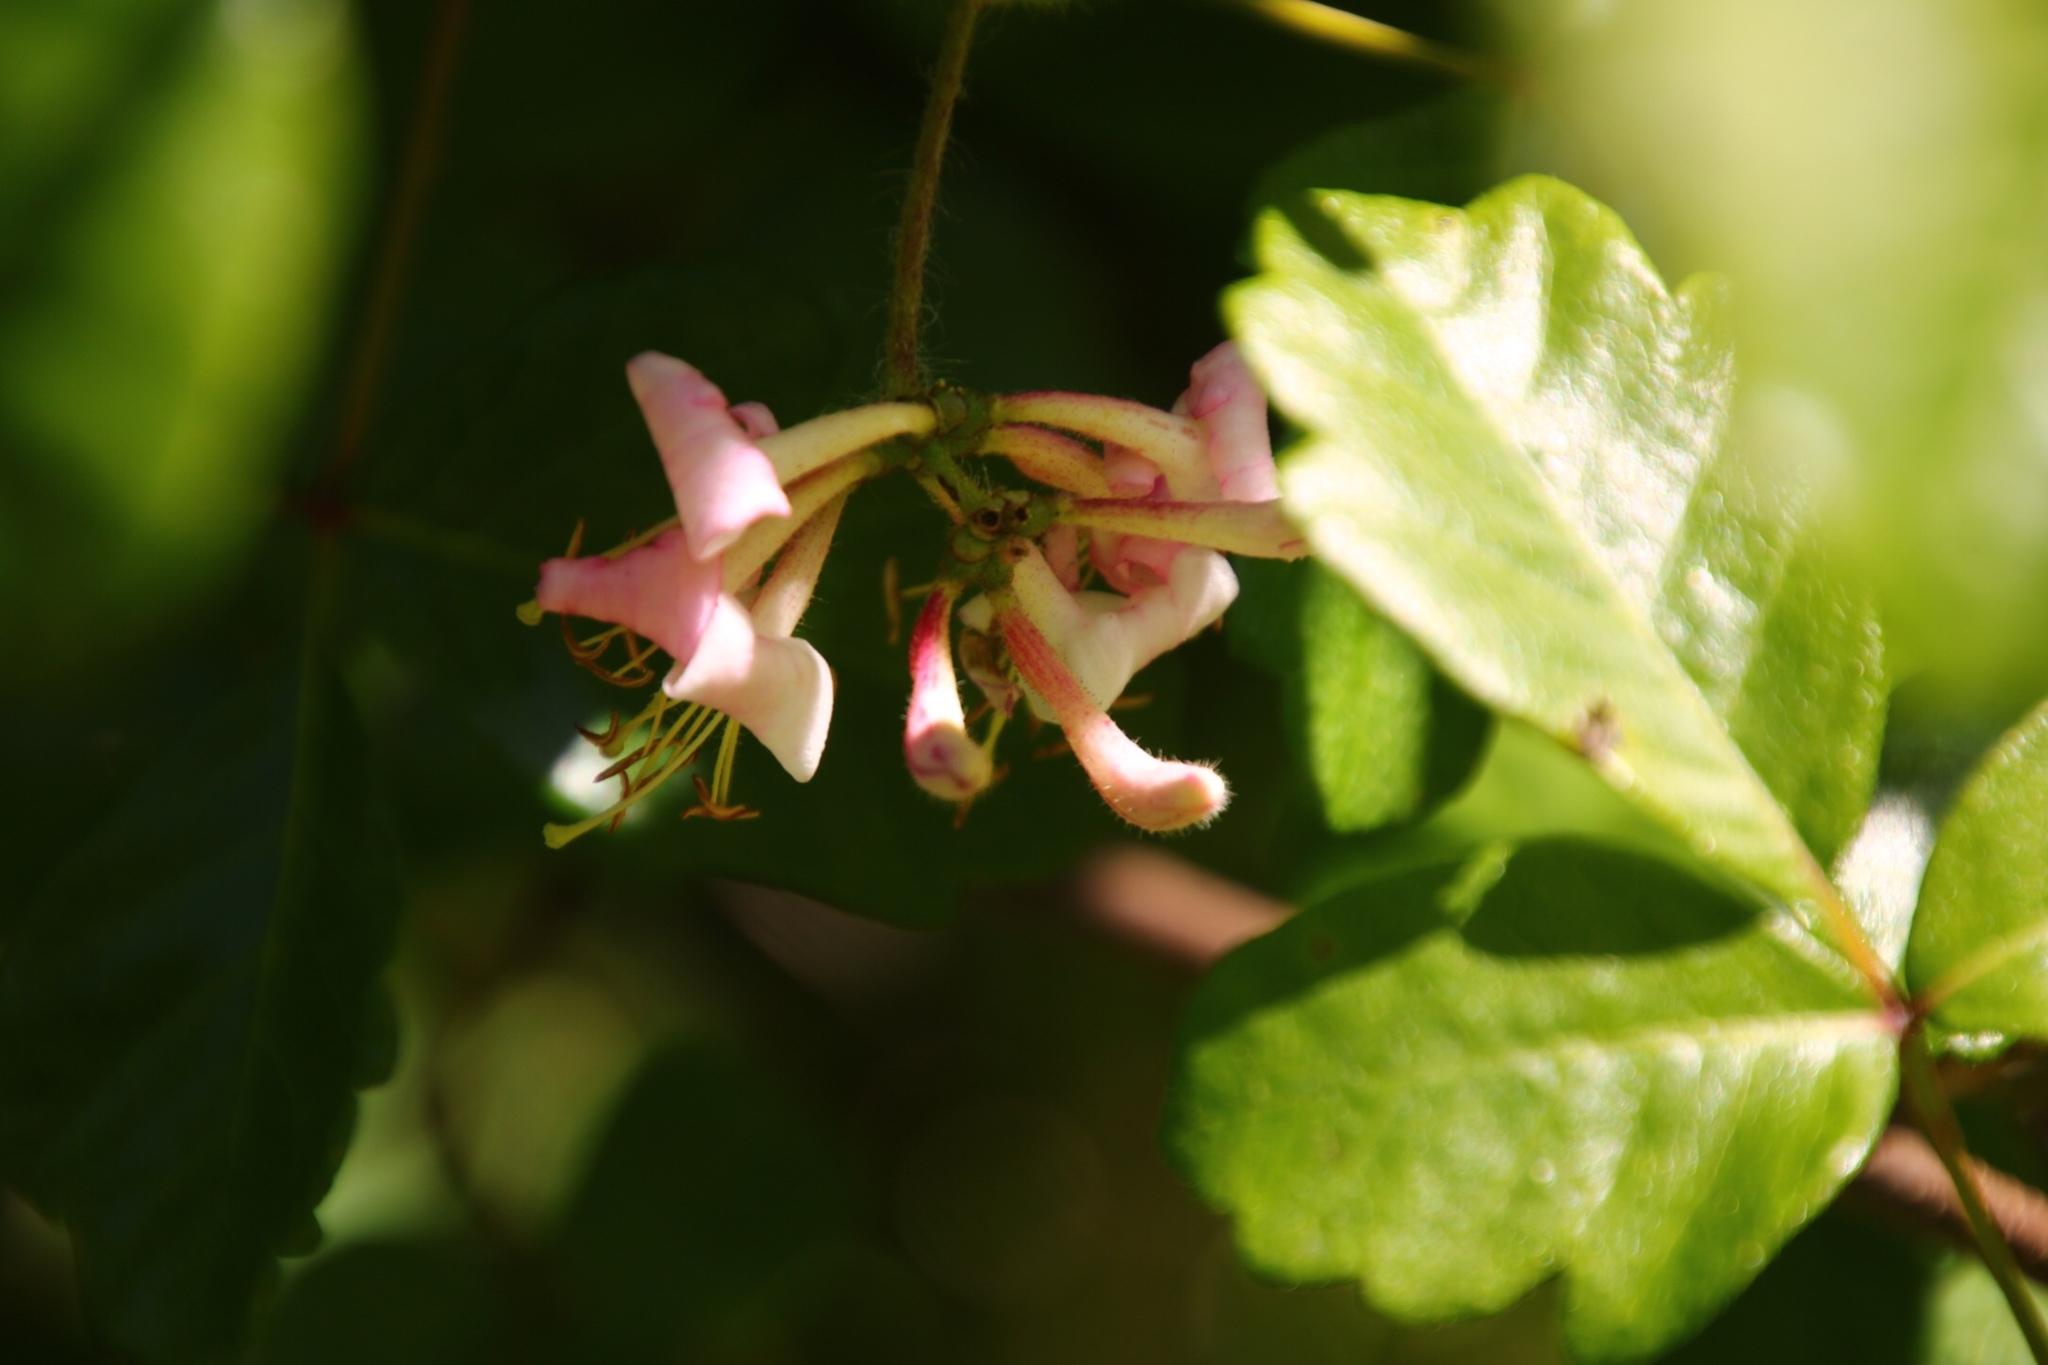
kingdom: Plantae
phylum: Tracheophyta
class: Magnoliopsida
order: Dipsacales
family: Caprifoliaceae
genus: Lonicera
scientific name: Lonicera hispidula
